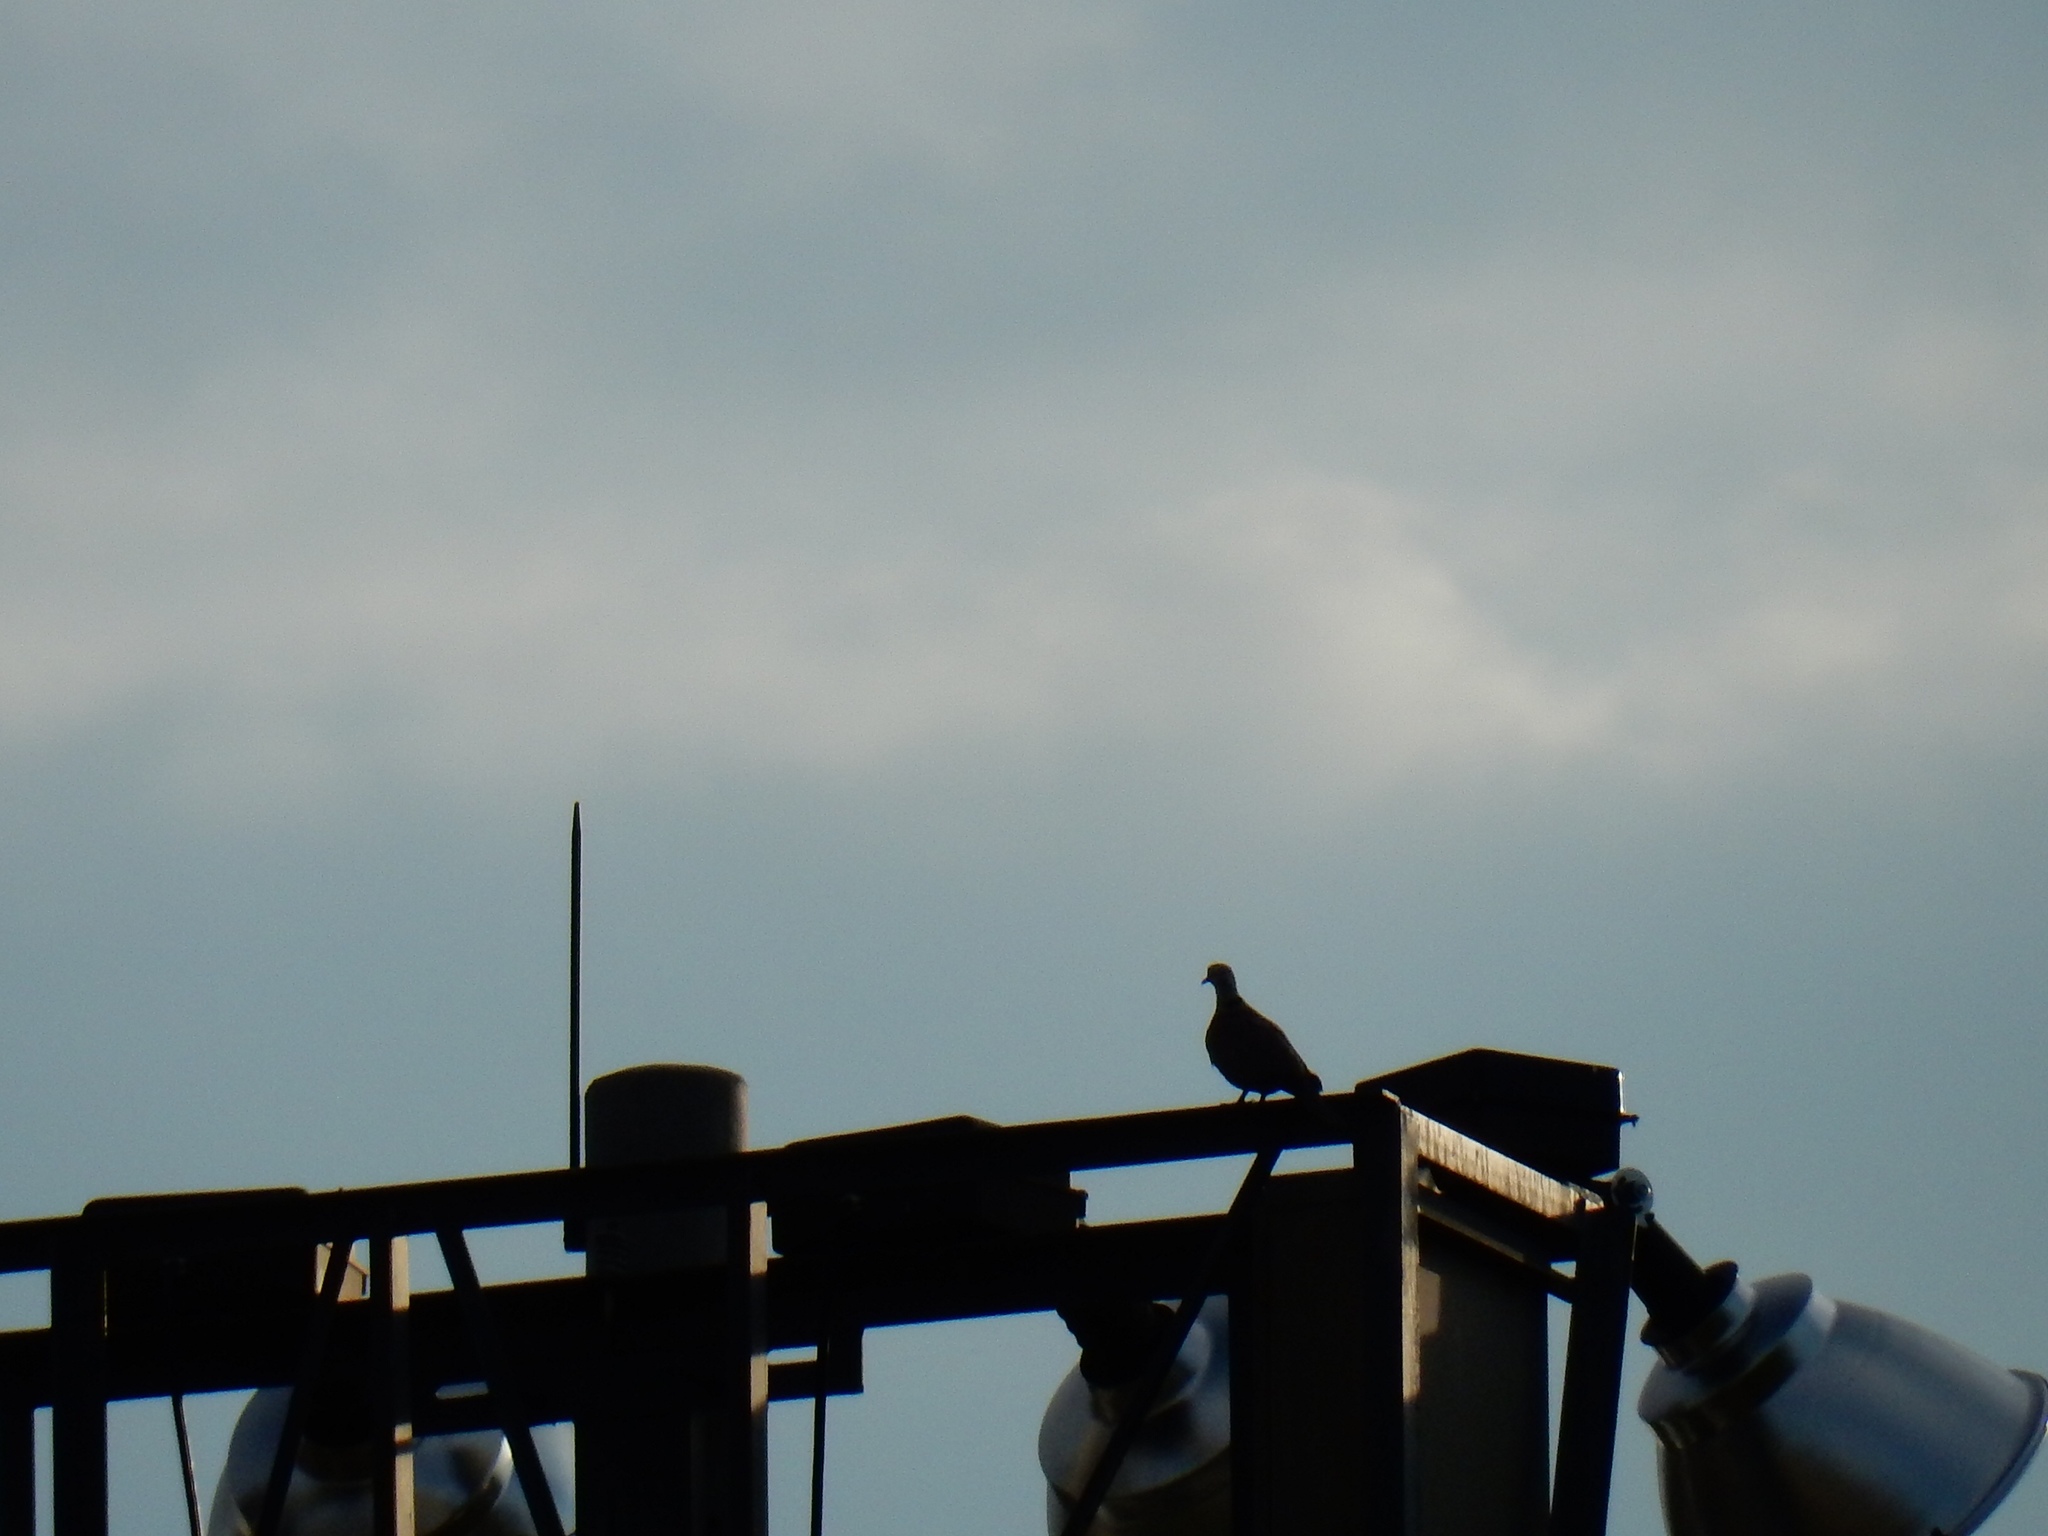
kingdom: Animalia
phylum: Chordata
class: Aves
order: Columbiformes
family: Columbidae
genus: Streptopelia
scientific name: Streptopelia decaocto
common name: Eurasian collared dove
